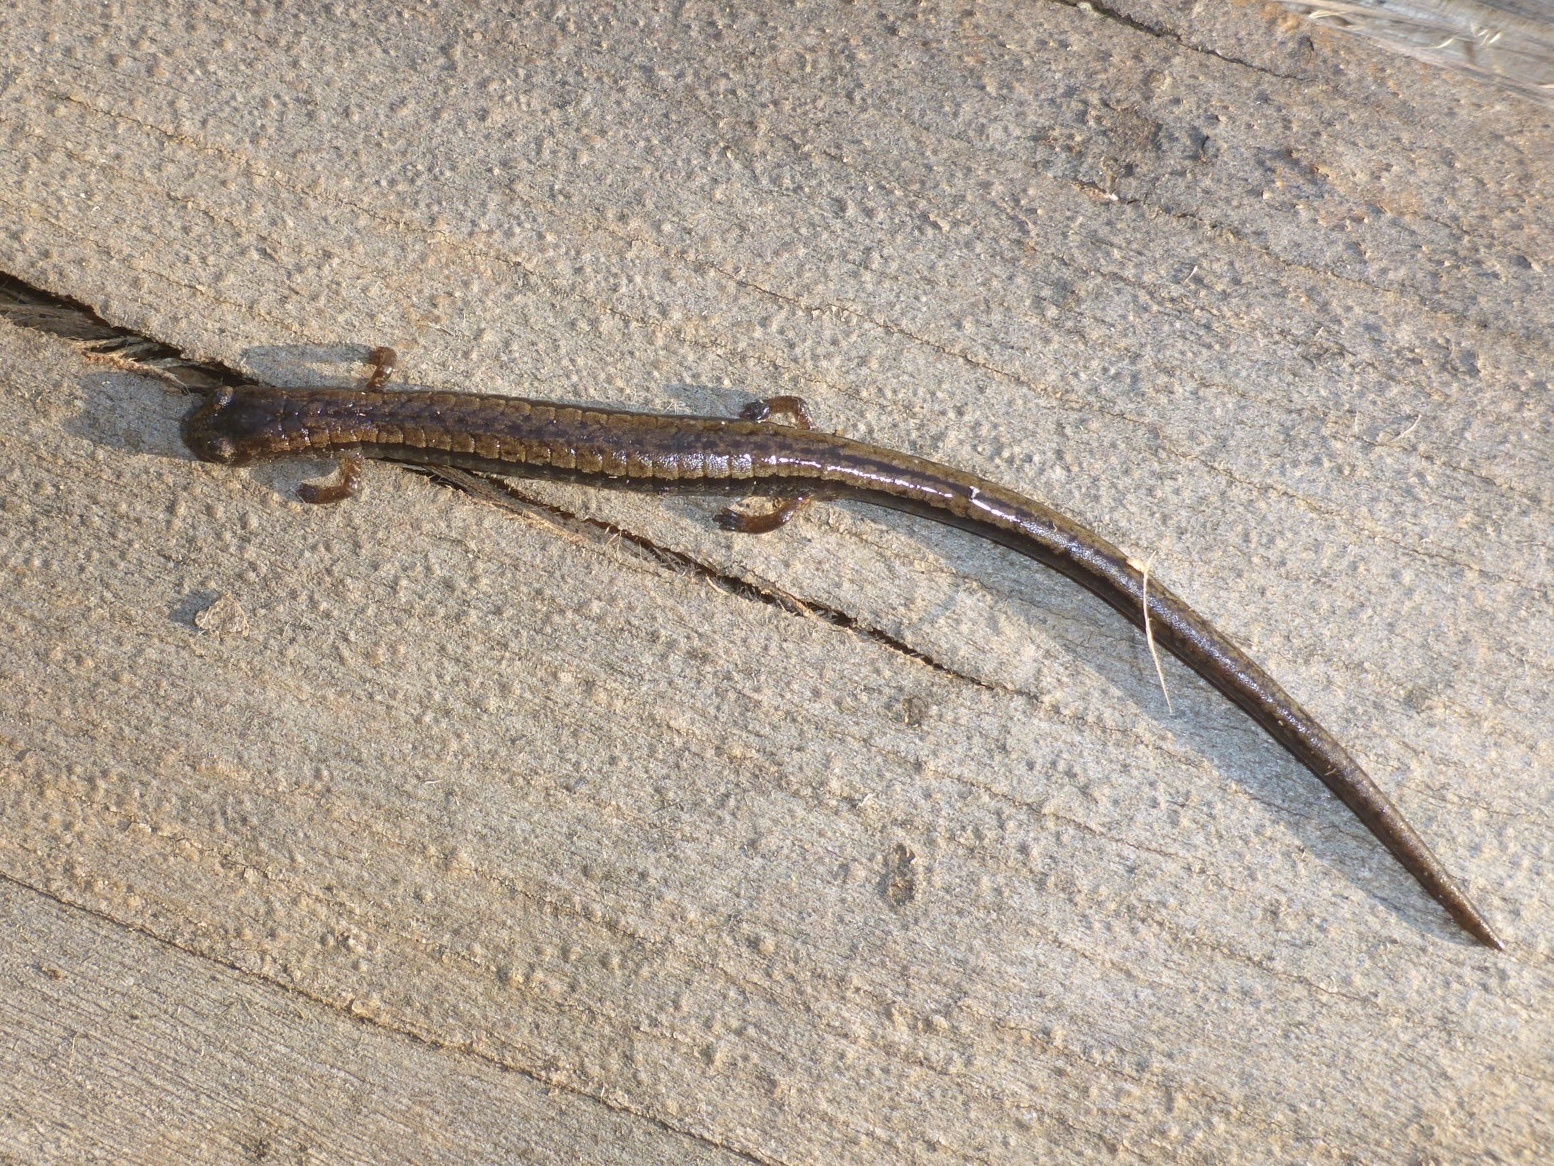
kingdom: Animalia
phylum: Chordata
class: Amphibia
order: Caudata
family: Plethodontidae
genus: Batrachoseps
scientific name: Batrachoseps attenuatus
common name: California slender salamander
